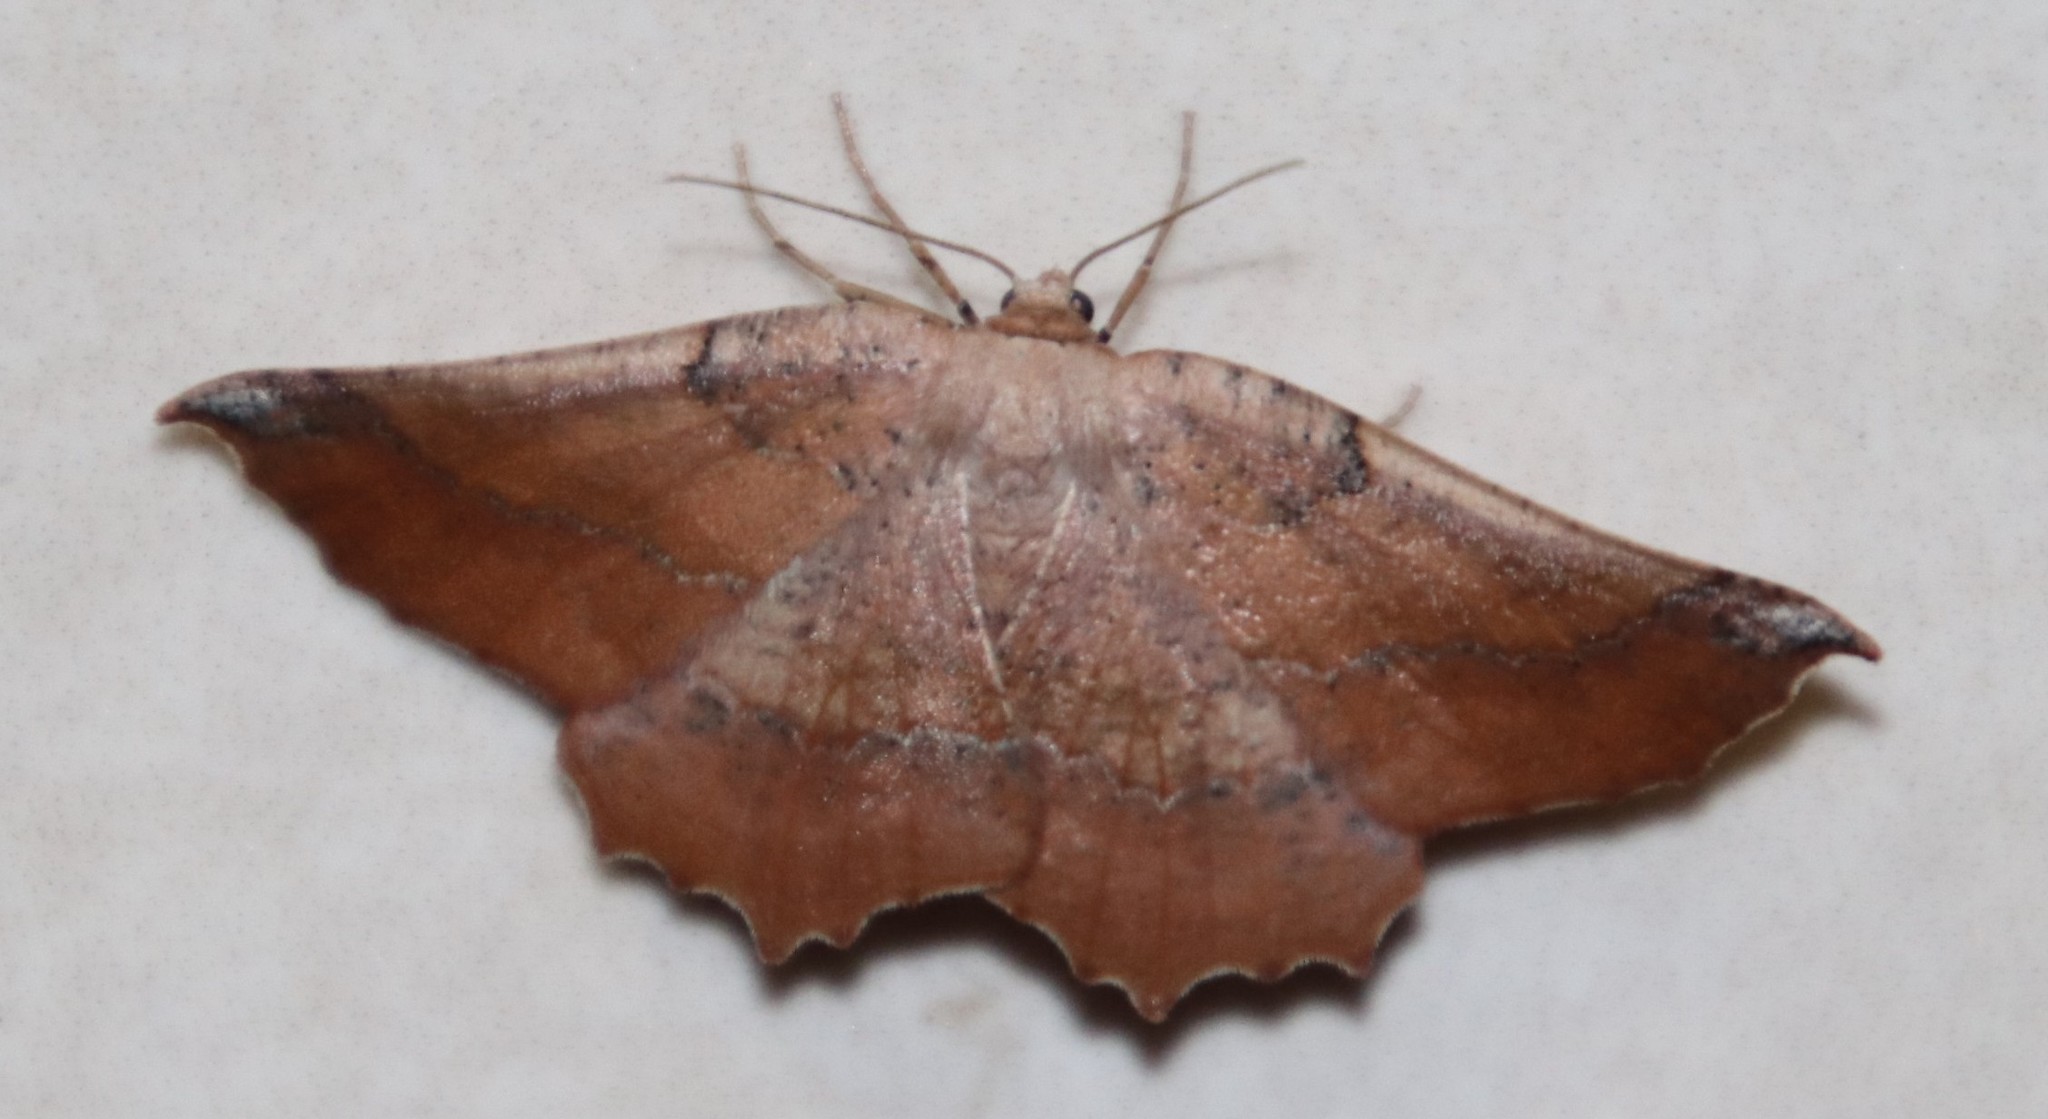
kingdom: Animalia
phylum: Arthropoda
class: Insecta
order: Lepidoptera
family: Geometridae
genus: Drepanogynis
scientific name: Drepanogynis mixtaria
